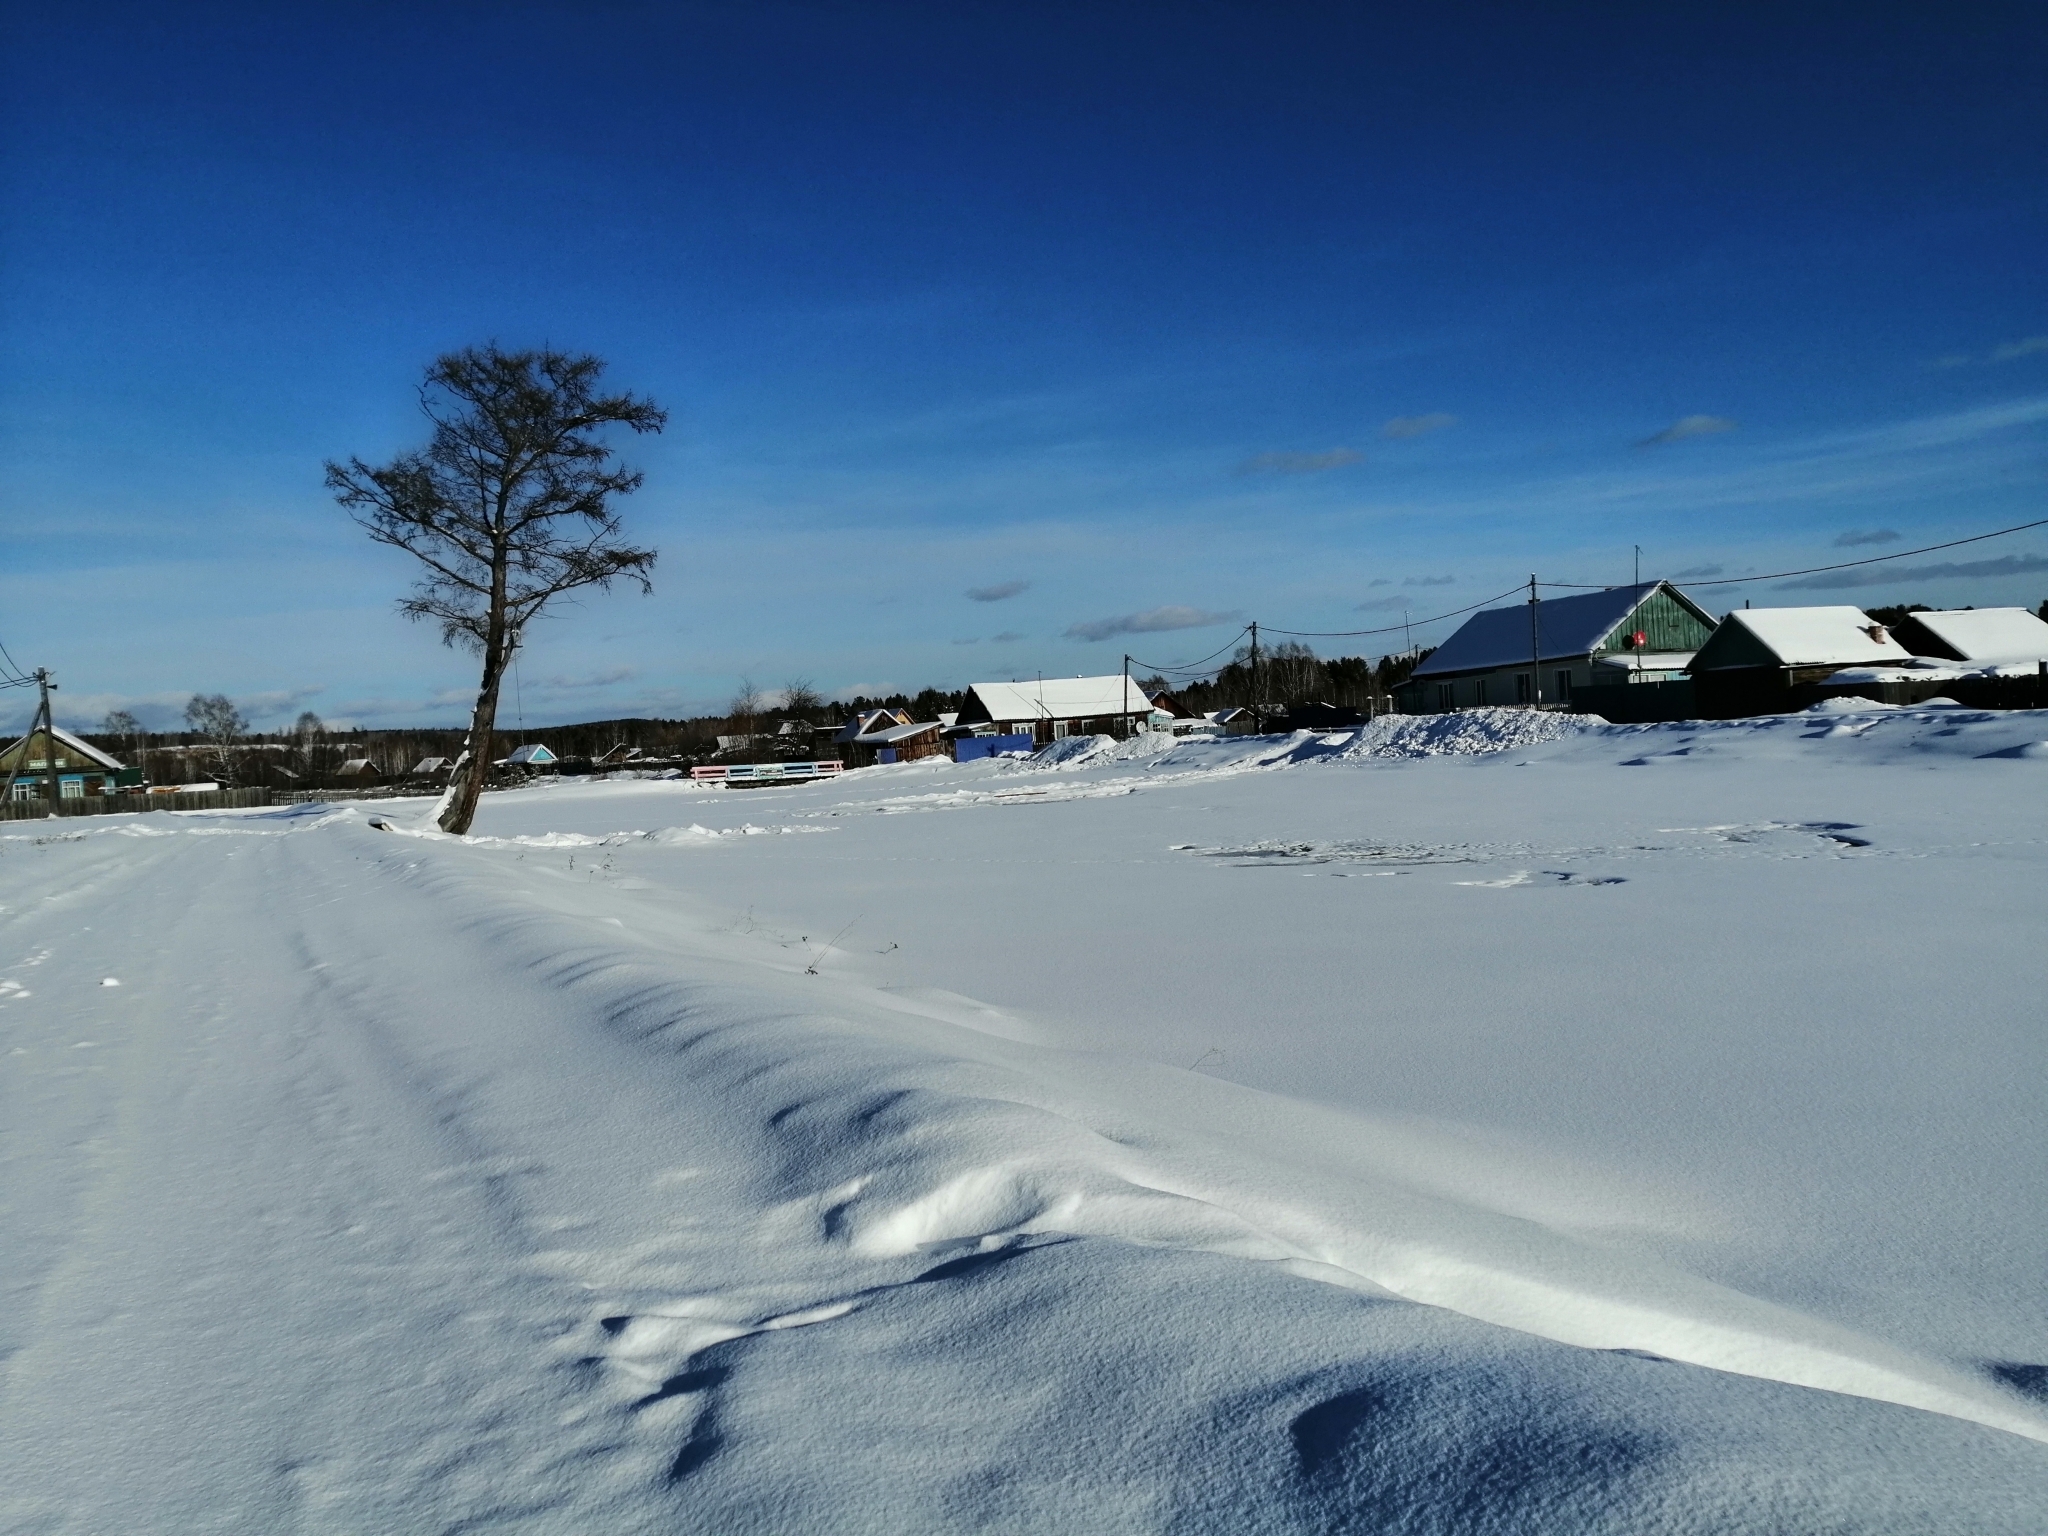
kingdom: Plantae
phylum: Tracheophyta
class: Pinopsida
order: Pinales
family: Pinaceae
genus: Larix
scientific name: Larix sibirica
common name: Siberian larch
